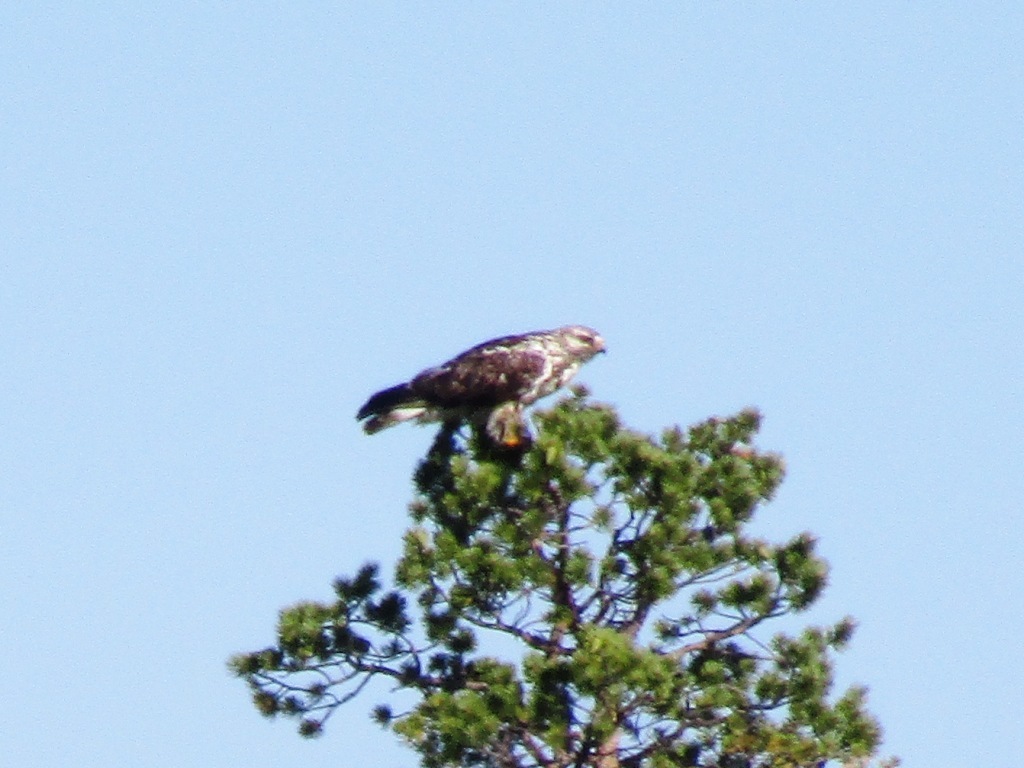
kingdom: Animalia
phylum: Chordata
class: Aves
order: Accipitriformes
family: Accipitridae
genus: Buteo
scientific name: Buteo lagopus
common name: Rough-legged buzzard
